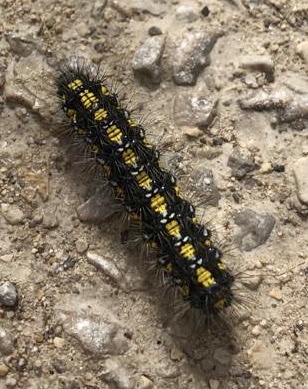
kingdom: Animalia
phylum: Arthropoda
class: Insecta
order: Lepidoptera
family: Erebidae
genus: Callimorpha
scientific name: Callimorpha dominula
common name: Scarlet tiger
